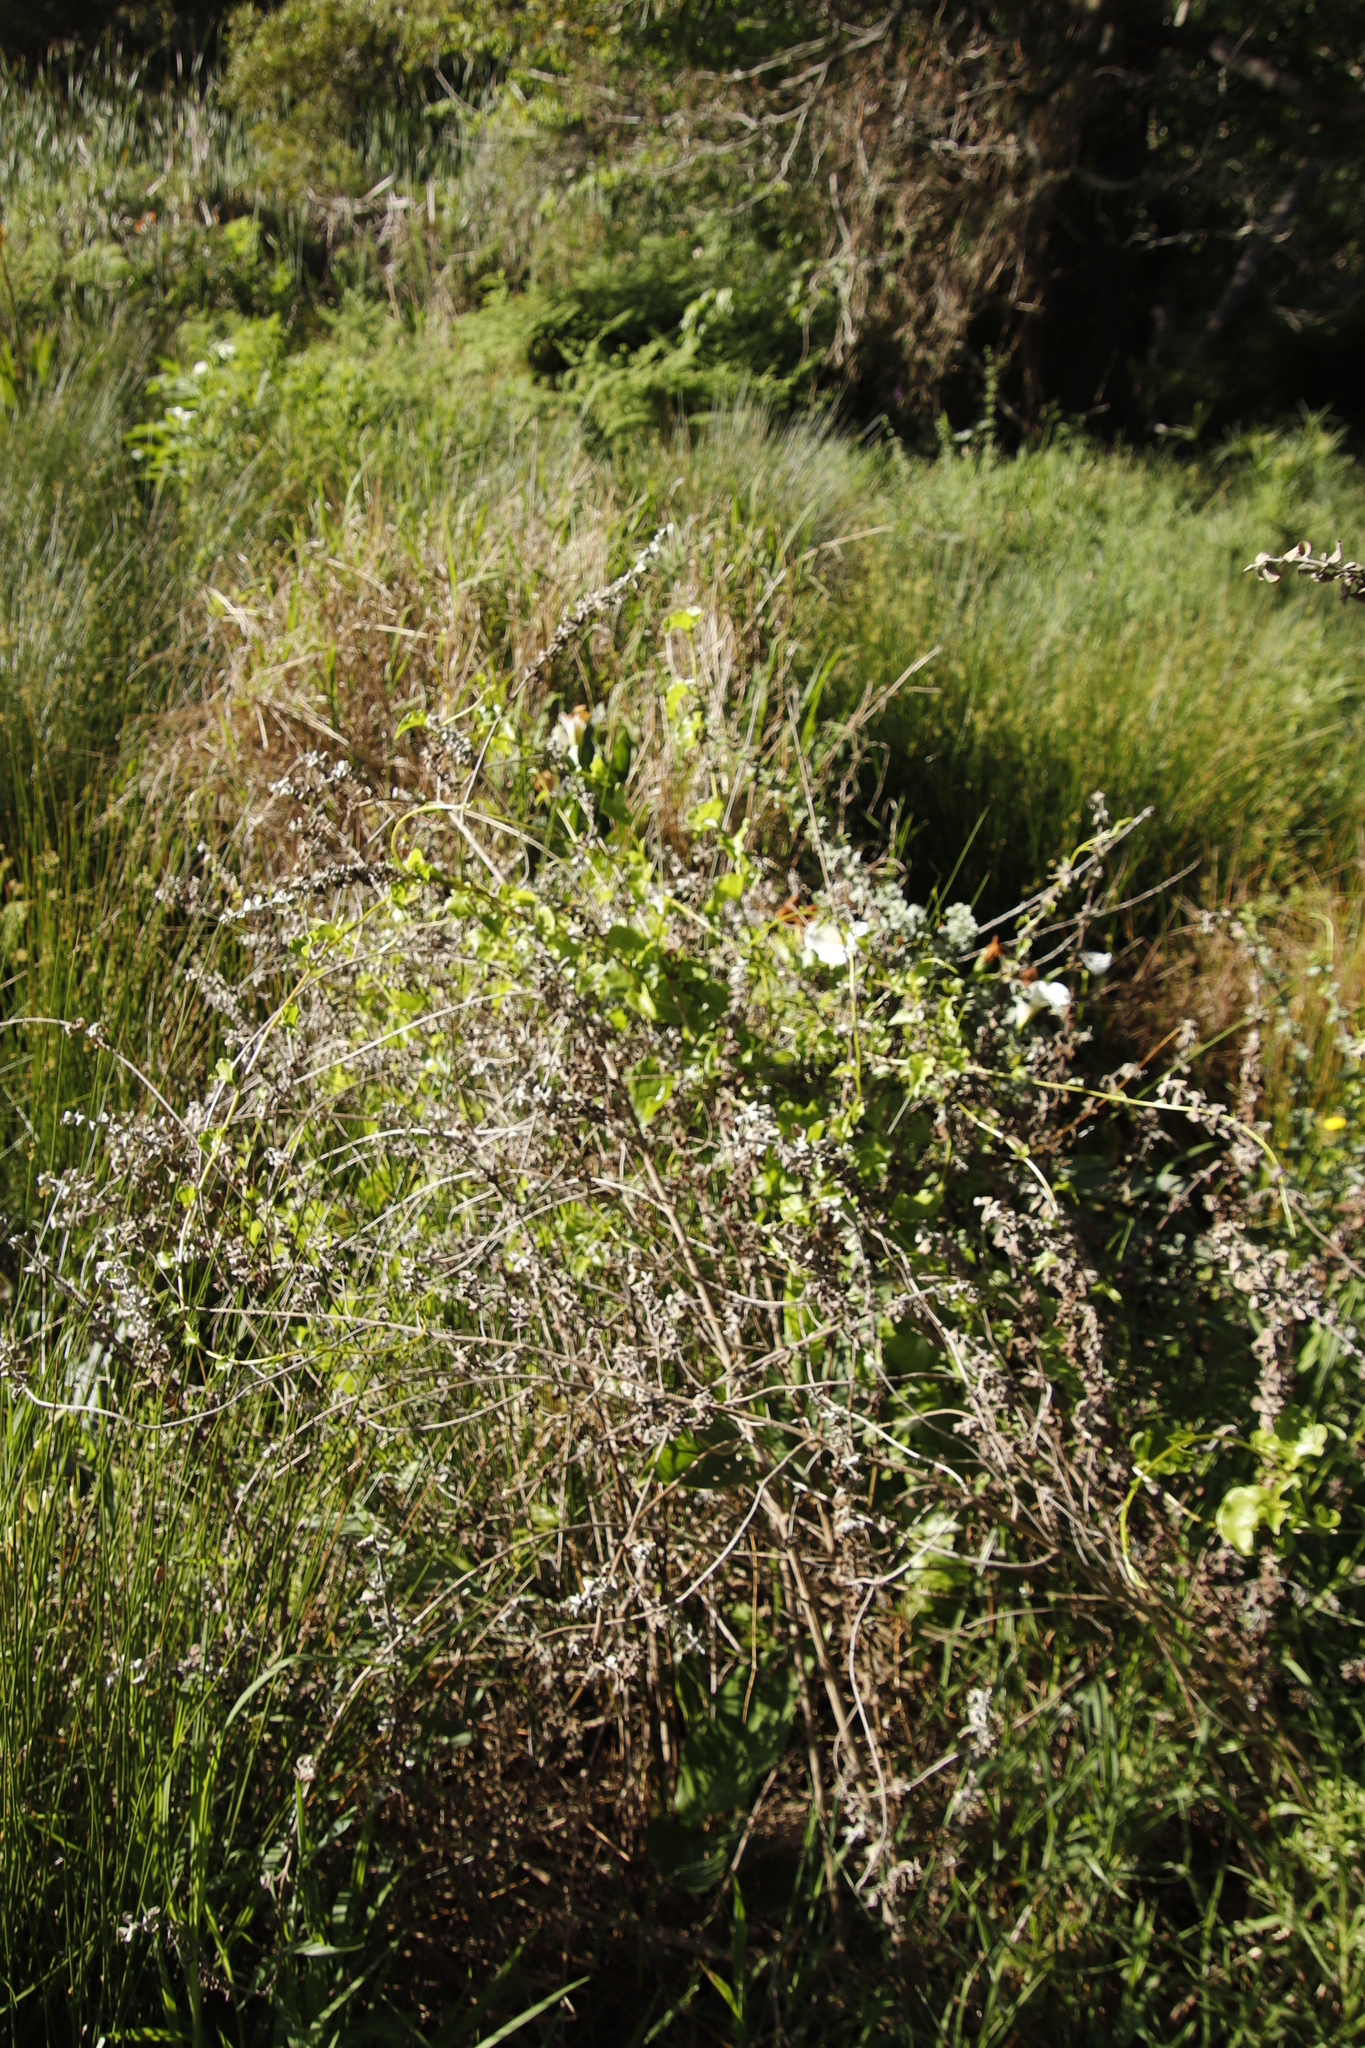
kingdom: Plantae
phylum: Tracheophyta
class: Magnoliopsida
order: Caryophyllales
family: Basellaceae
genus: Anredera
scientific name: Anredera cordifolia
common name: Heartleaf madeiravine
